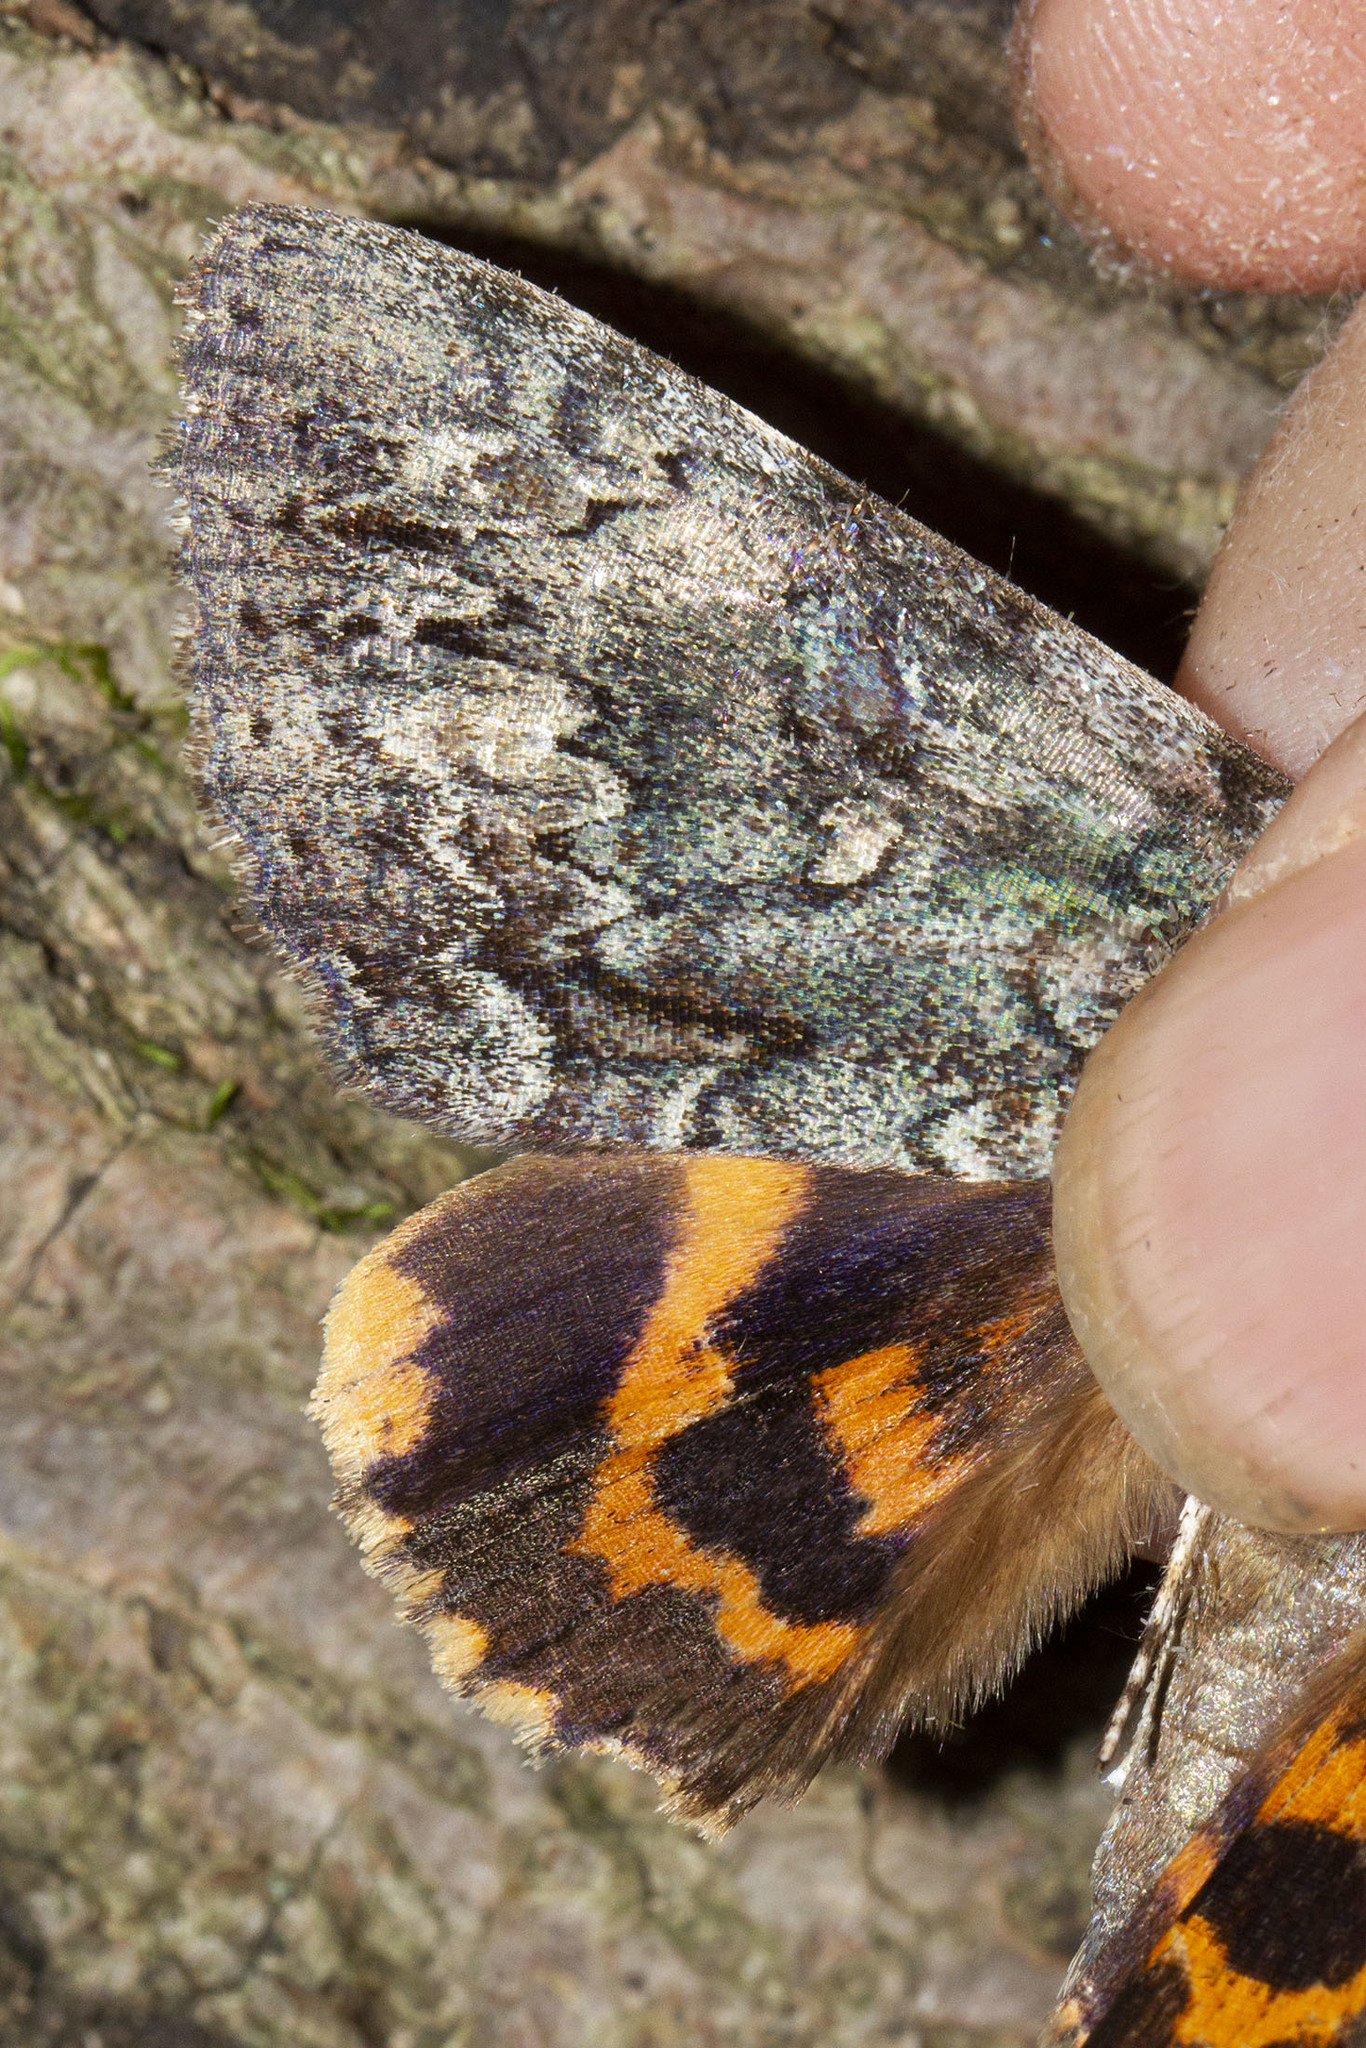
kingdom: Animalia
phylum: Arthropoda
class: Insecta
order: Lepidoptera
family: Erebidae
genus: Catocala
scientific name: Catocala palaeogama
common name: Oldwife underwing
